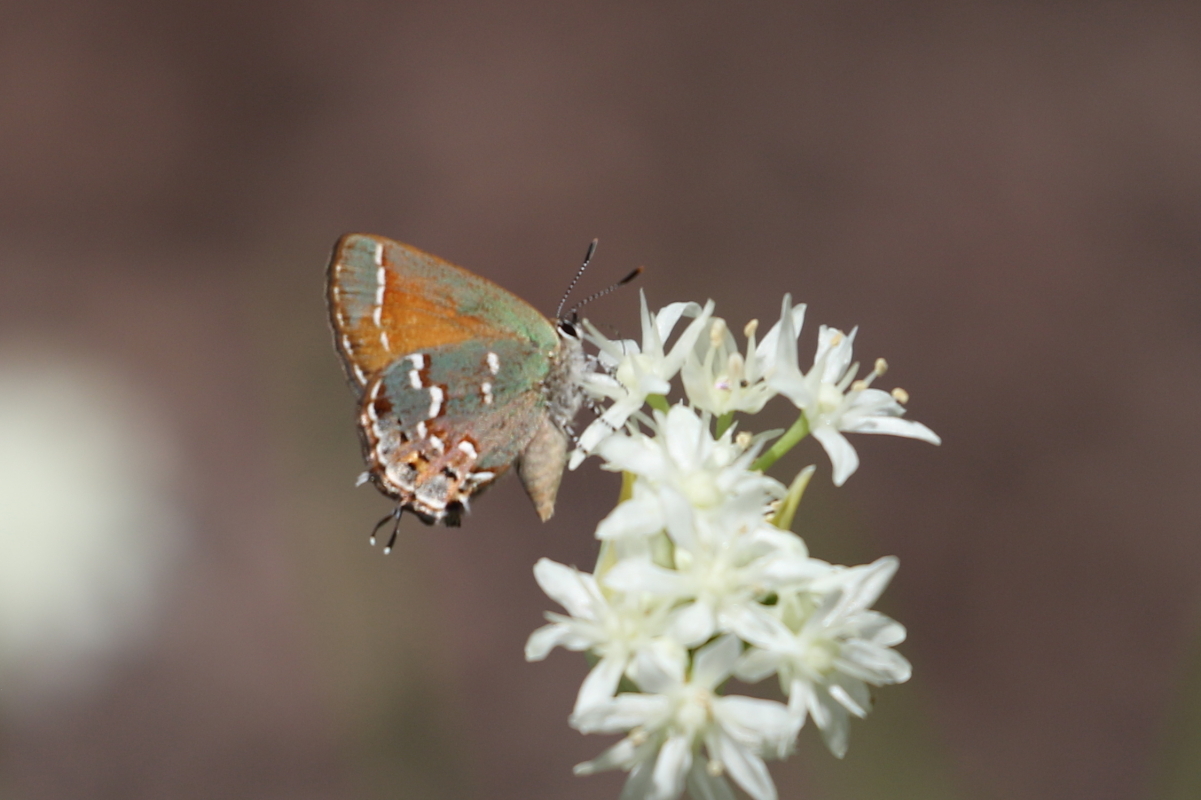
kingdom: Animalia
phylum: Arthropoda
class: Insecta
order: Lepidoptera
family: Lycaenidae
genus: Mitoura
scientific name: Mitoura gryneus
